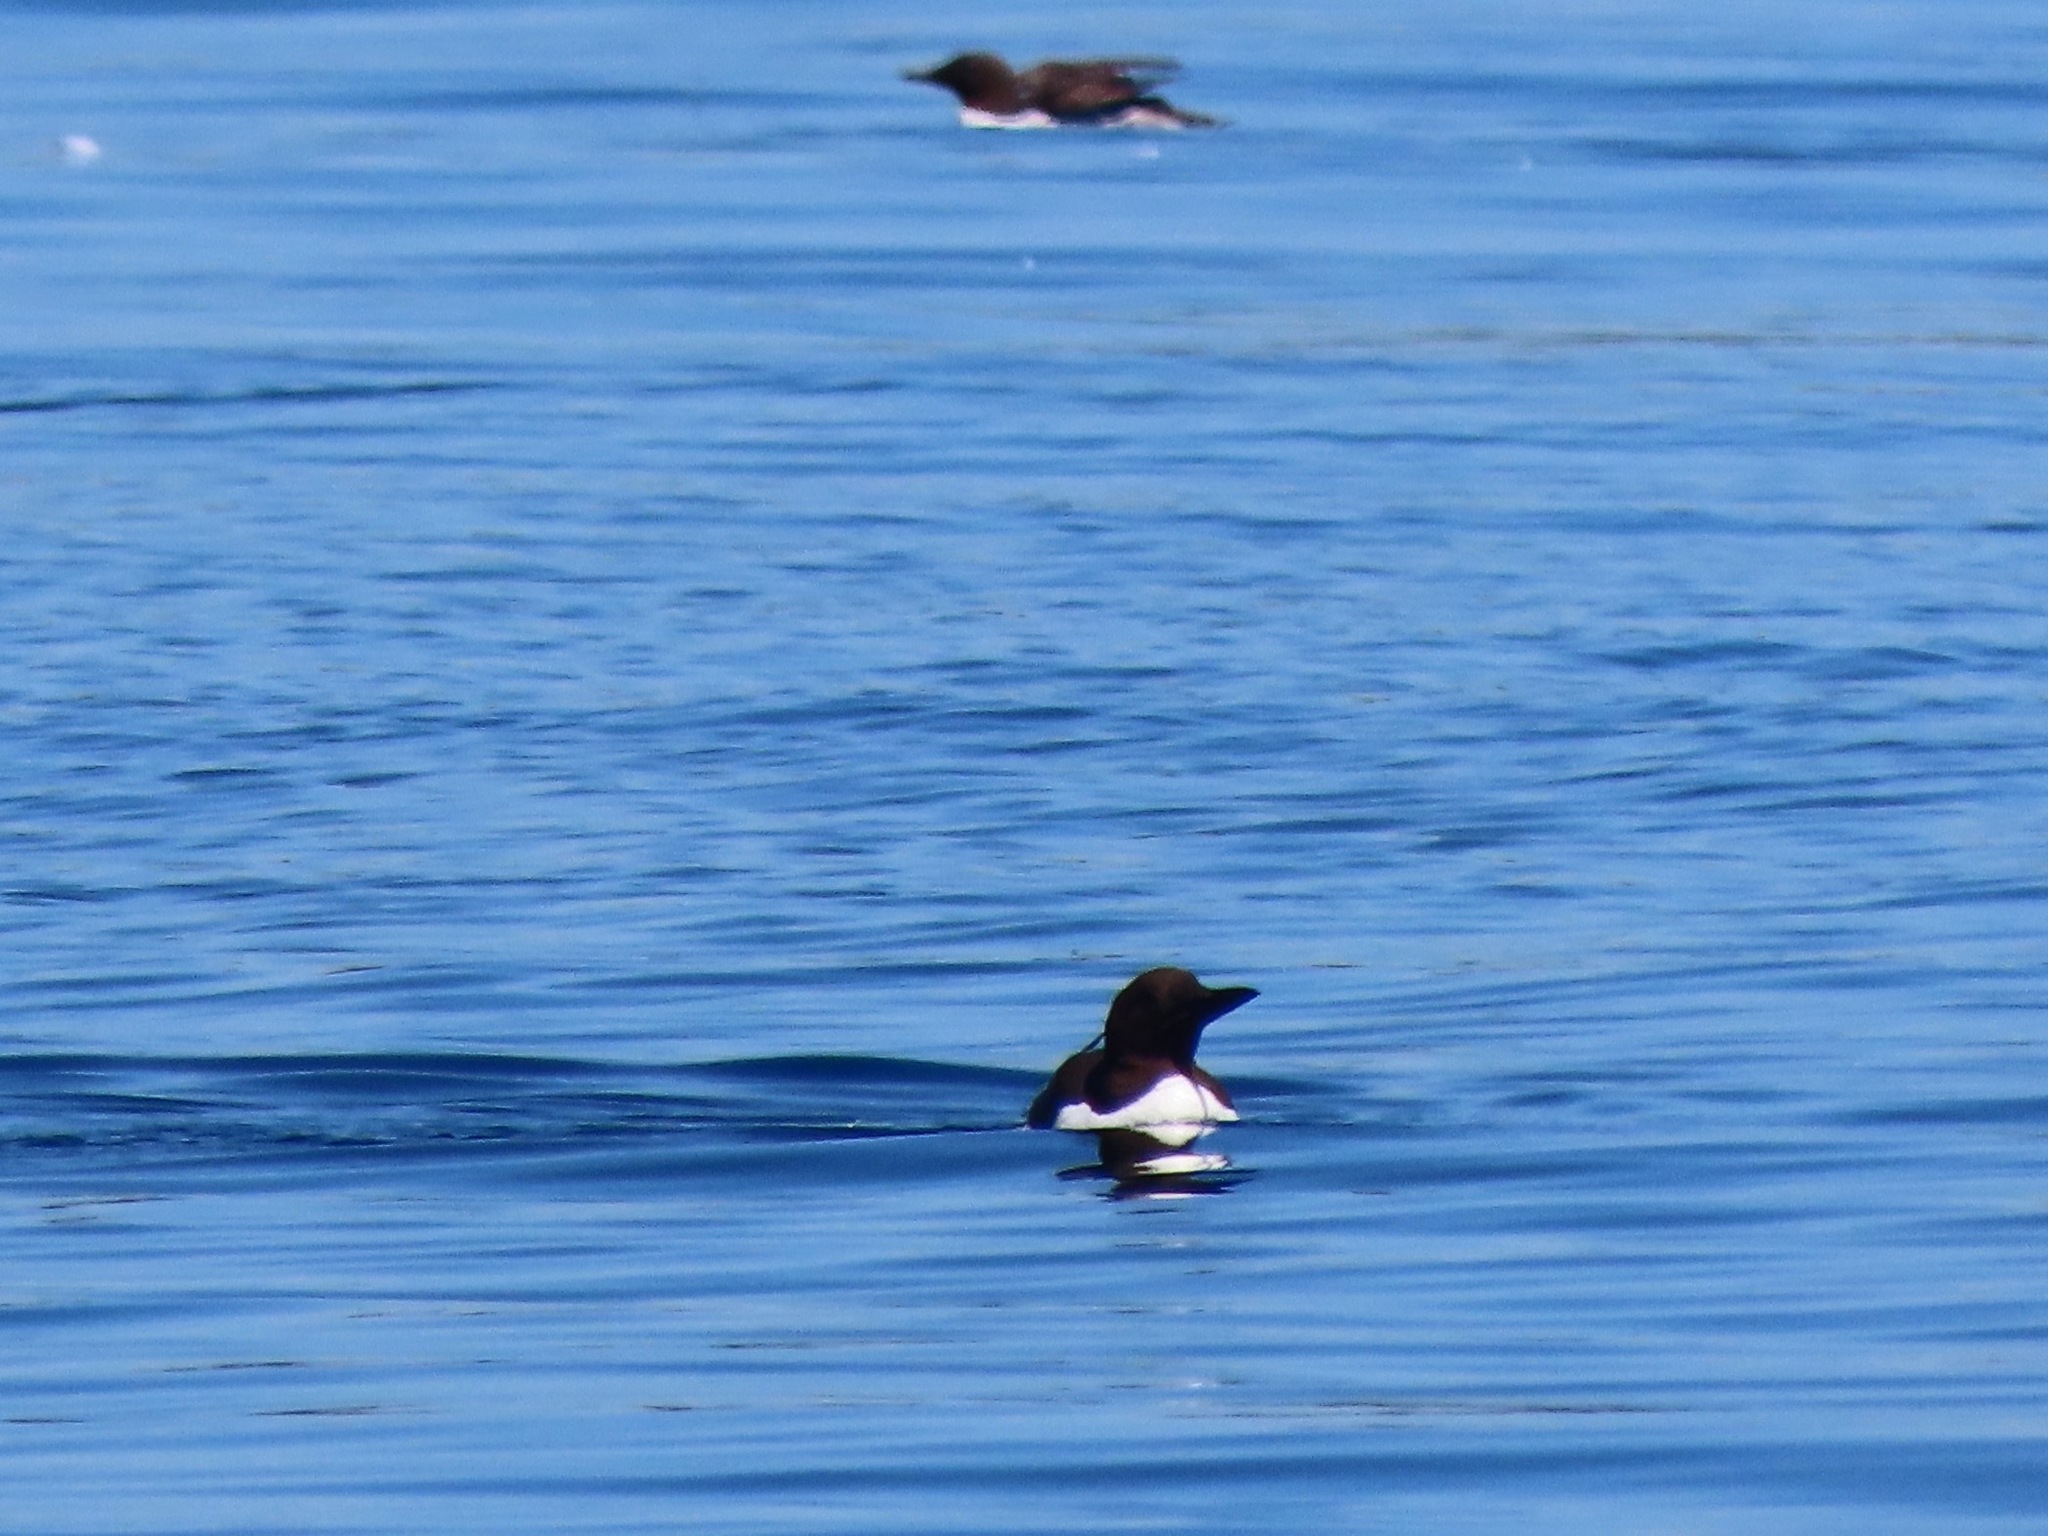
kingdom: Animalia
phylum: Chordata
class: Aves
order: Charadriiformes
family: Alcidae
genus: Uria
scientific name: Uria aalge
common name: Common murre
